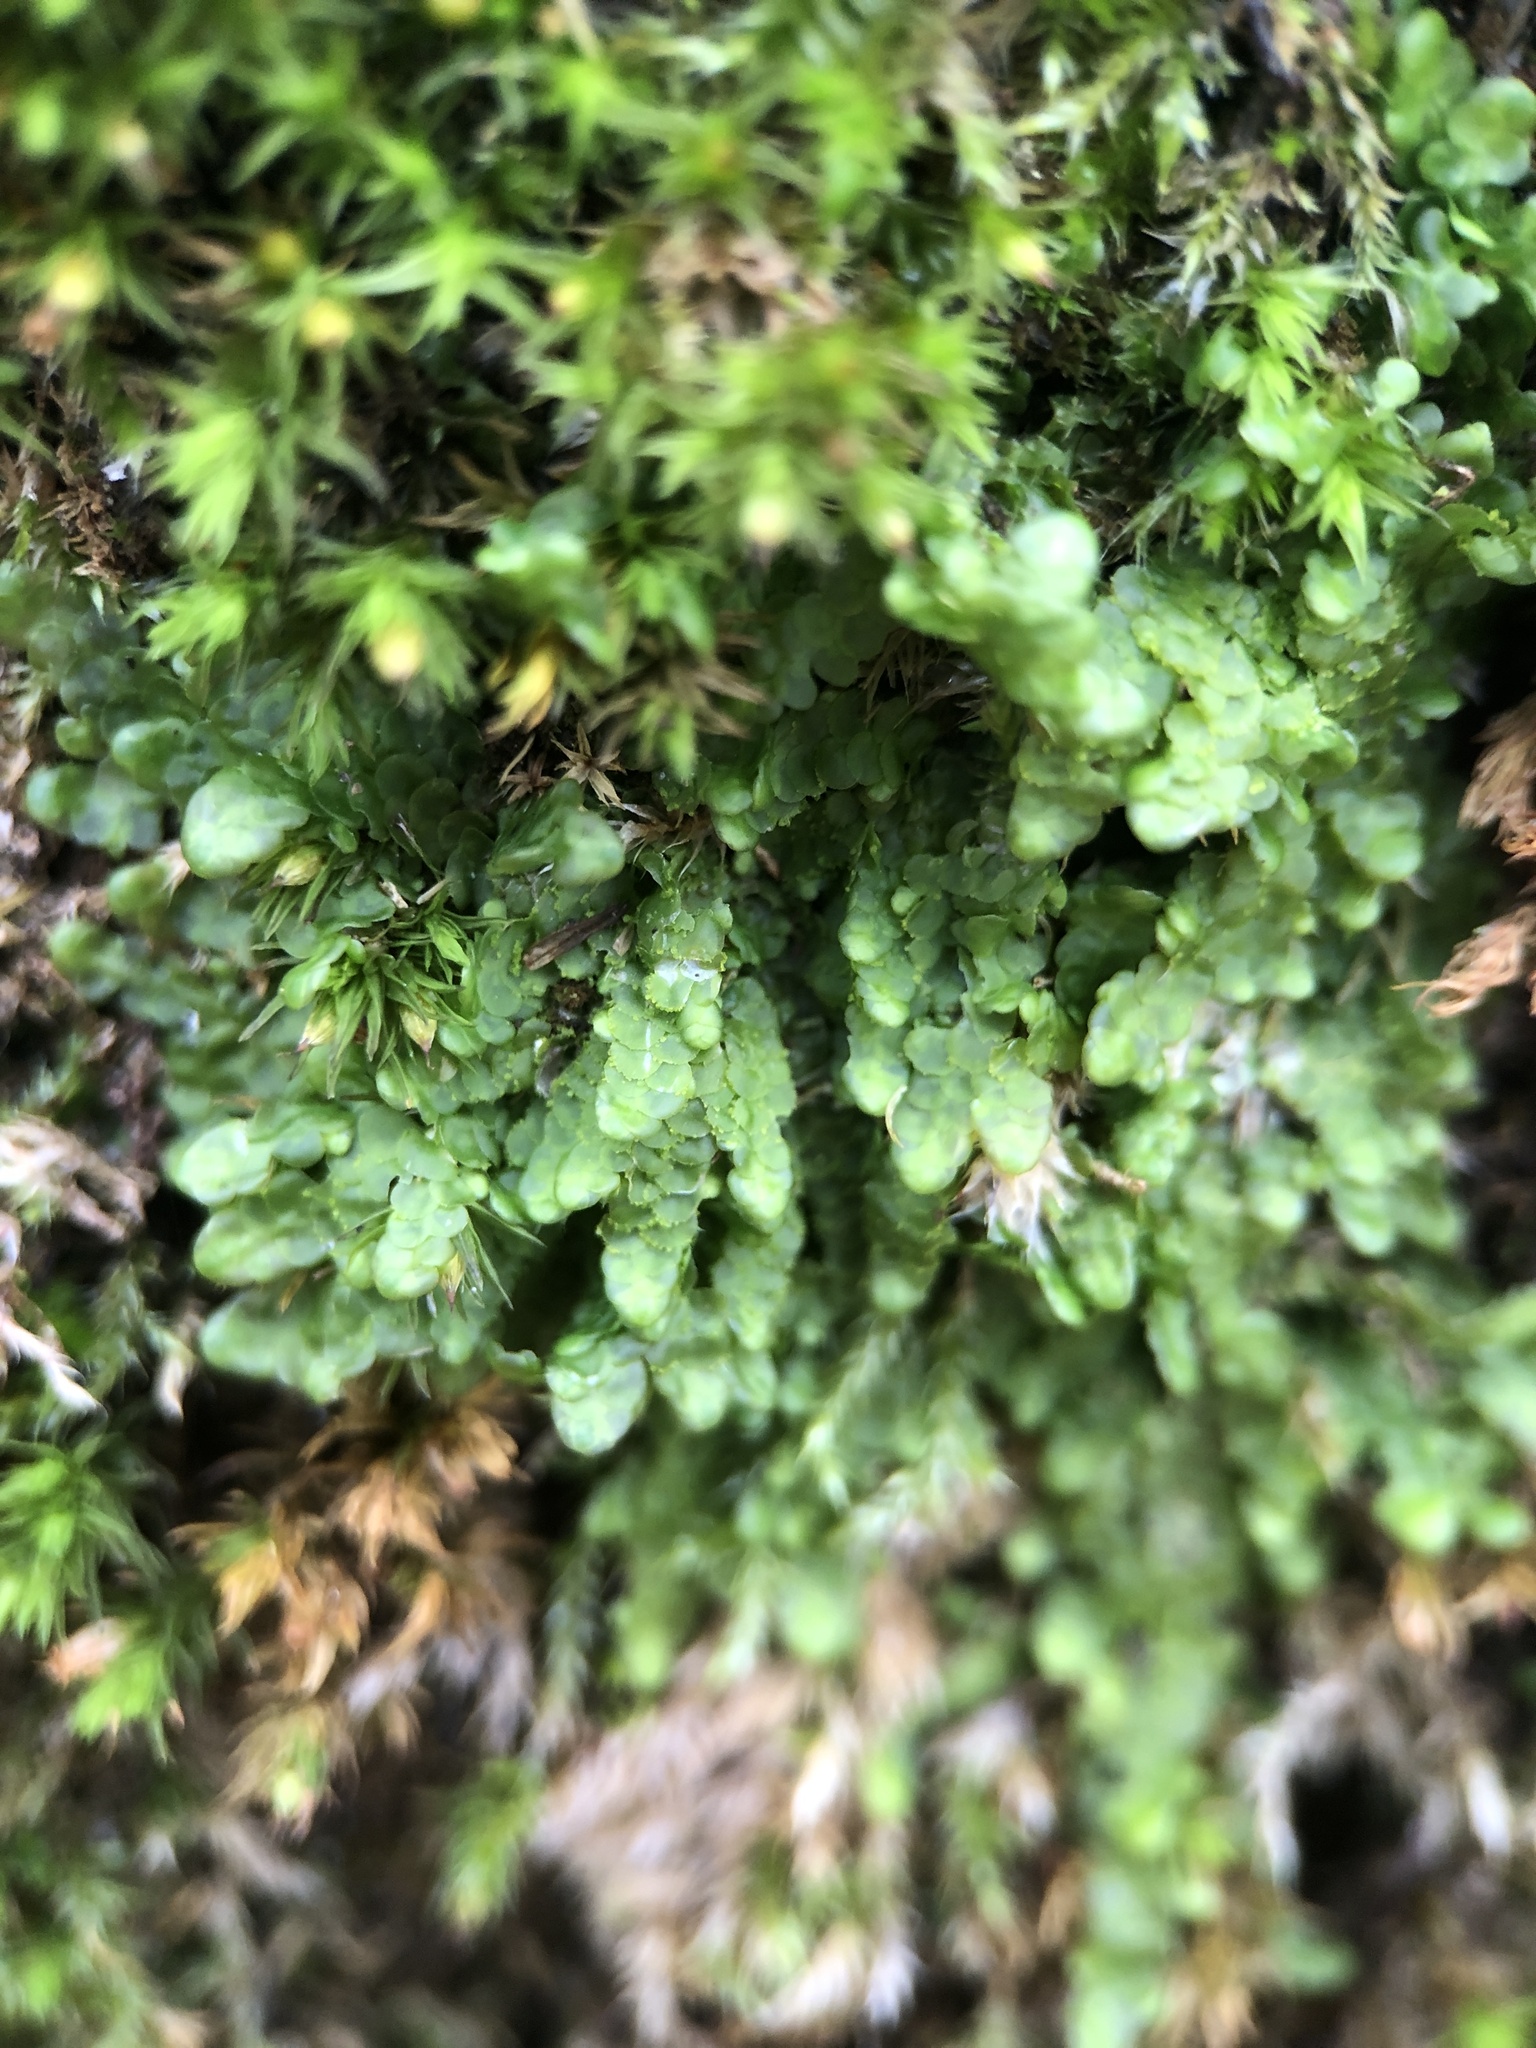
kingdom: Plantae
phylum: Marchantiophyta
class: Jungermanniopsida
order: Porellales
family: Radulaceae
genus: Radula
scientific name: Radula complanata
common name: Flat-leaved scalewort
